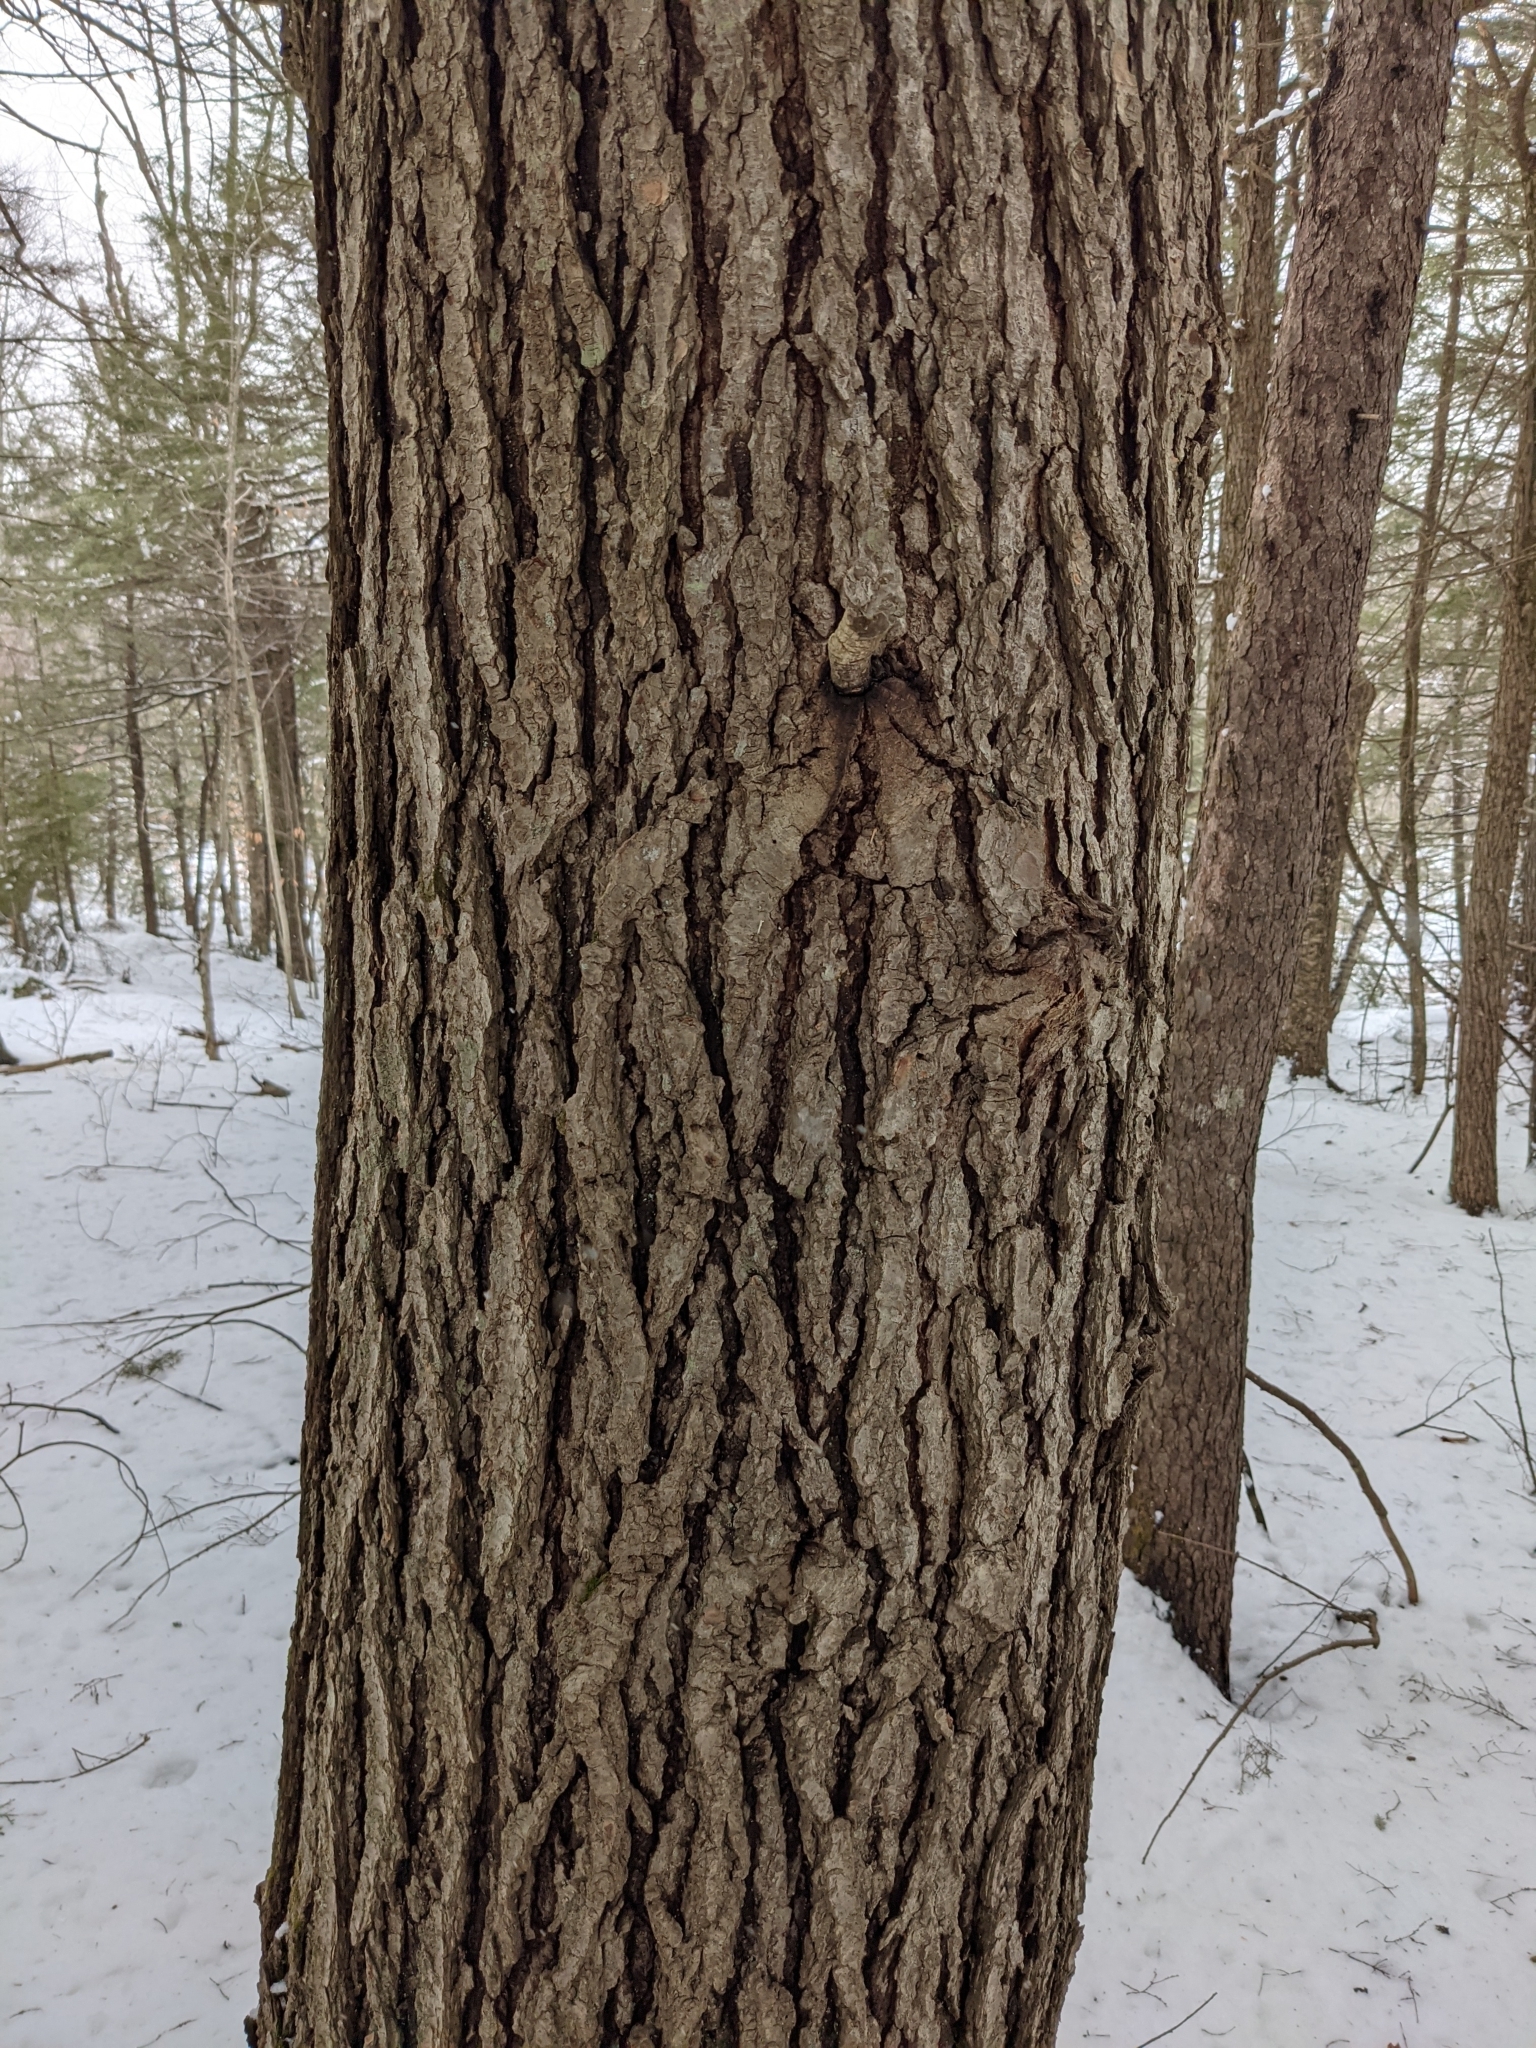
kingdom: Plantae
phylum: Tracheophyta
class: Pinopsida
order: Pinales
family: Pinaceae
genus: Tsuga
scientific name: Tsuga canadensis
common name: Eastern hemlock
